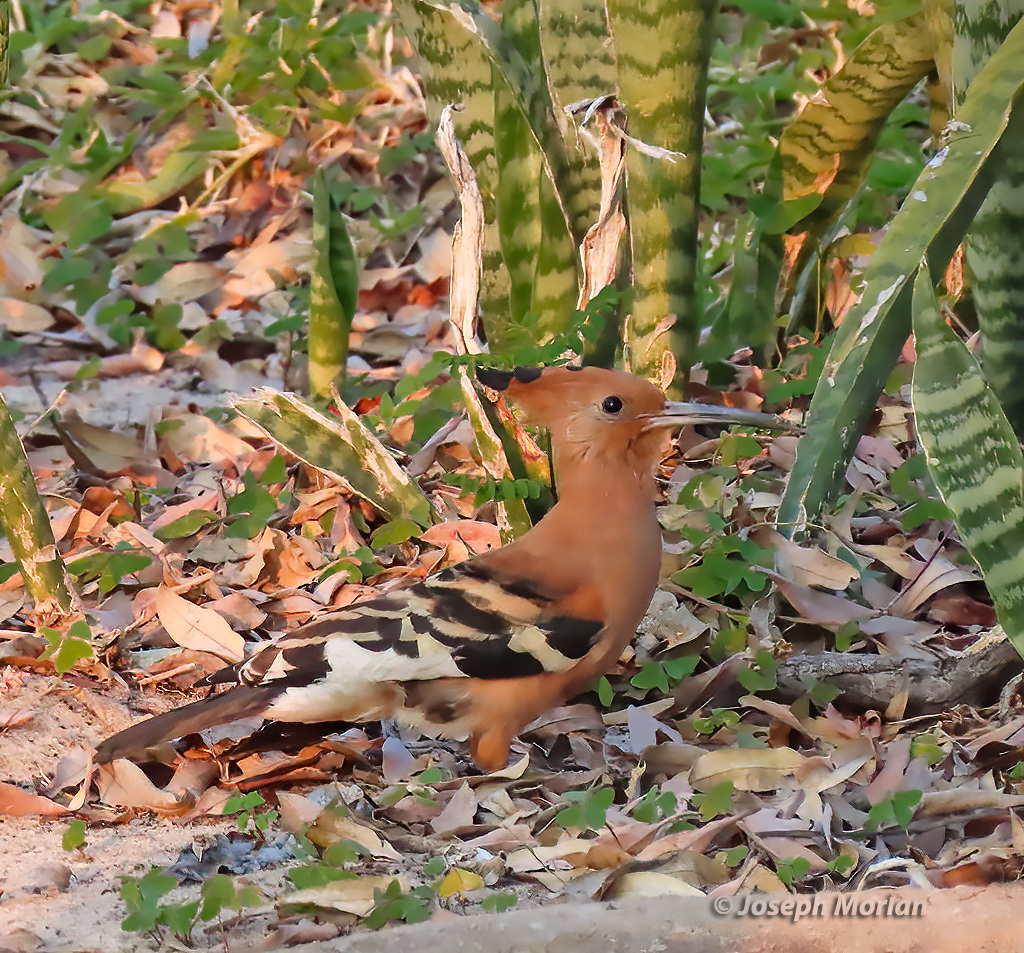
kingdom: Animalia
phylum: Chordata
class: Aves
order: Bucerotiformes
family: Upupidae
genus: Upupa
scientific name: Upupa epops
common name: Eurasian hoopoe
